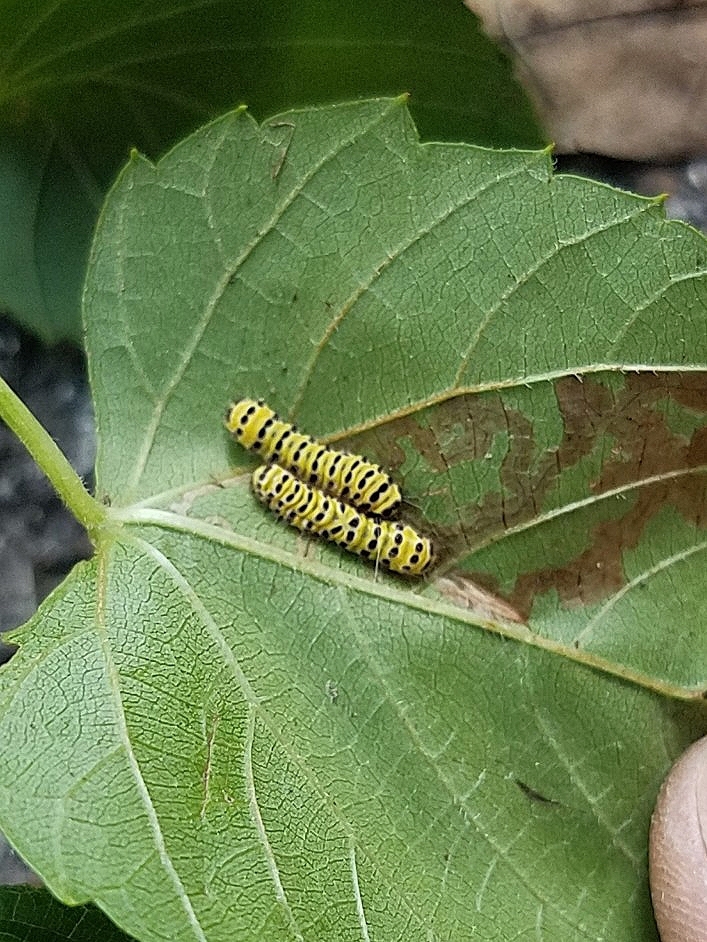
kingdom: Animalia
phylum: Arthropoda
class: Insecta
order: Lepidoptera
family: Zygaenidae
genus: Harrisina
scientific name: Harrisina americana
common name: Grapeleaf skeletonizer moth
